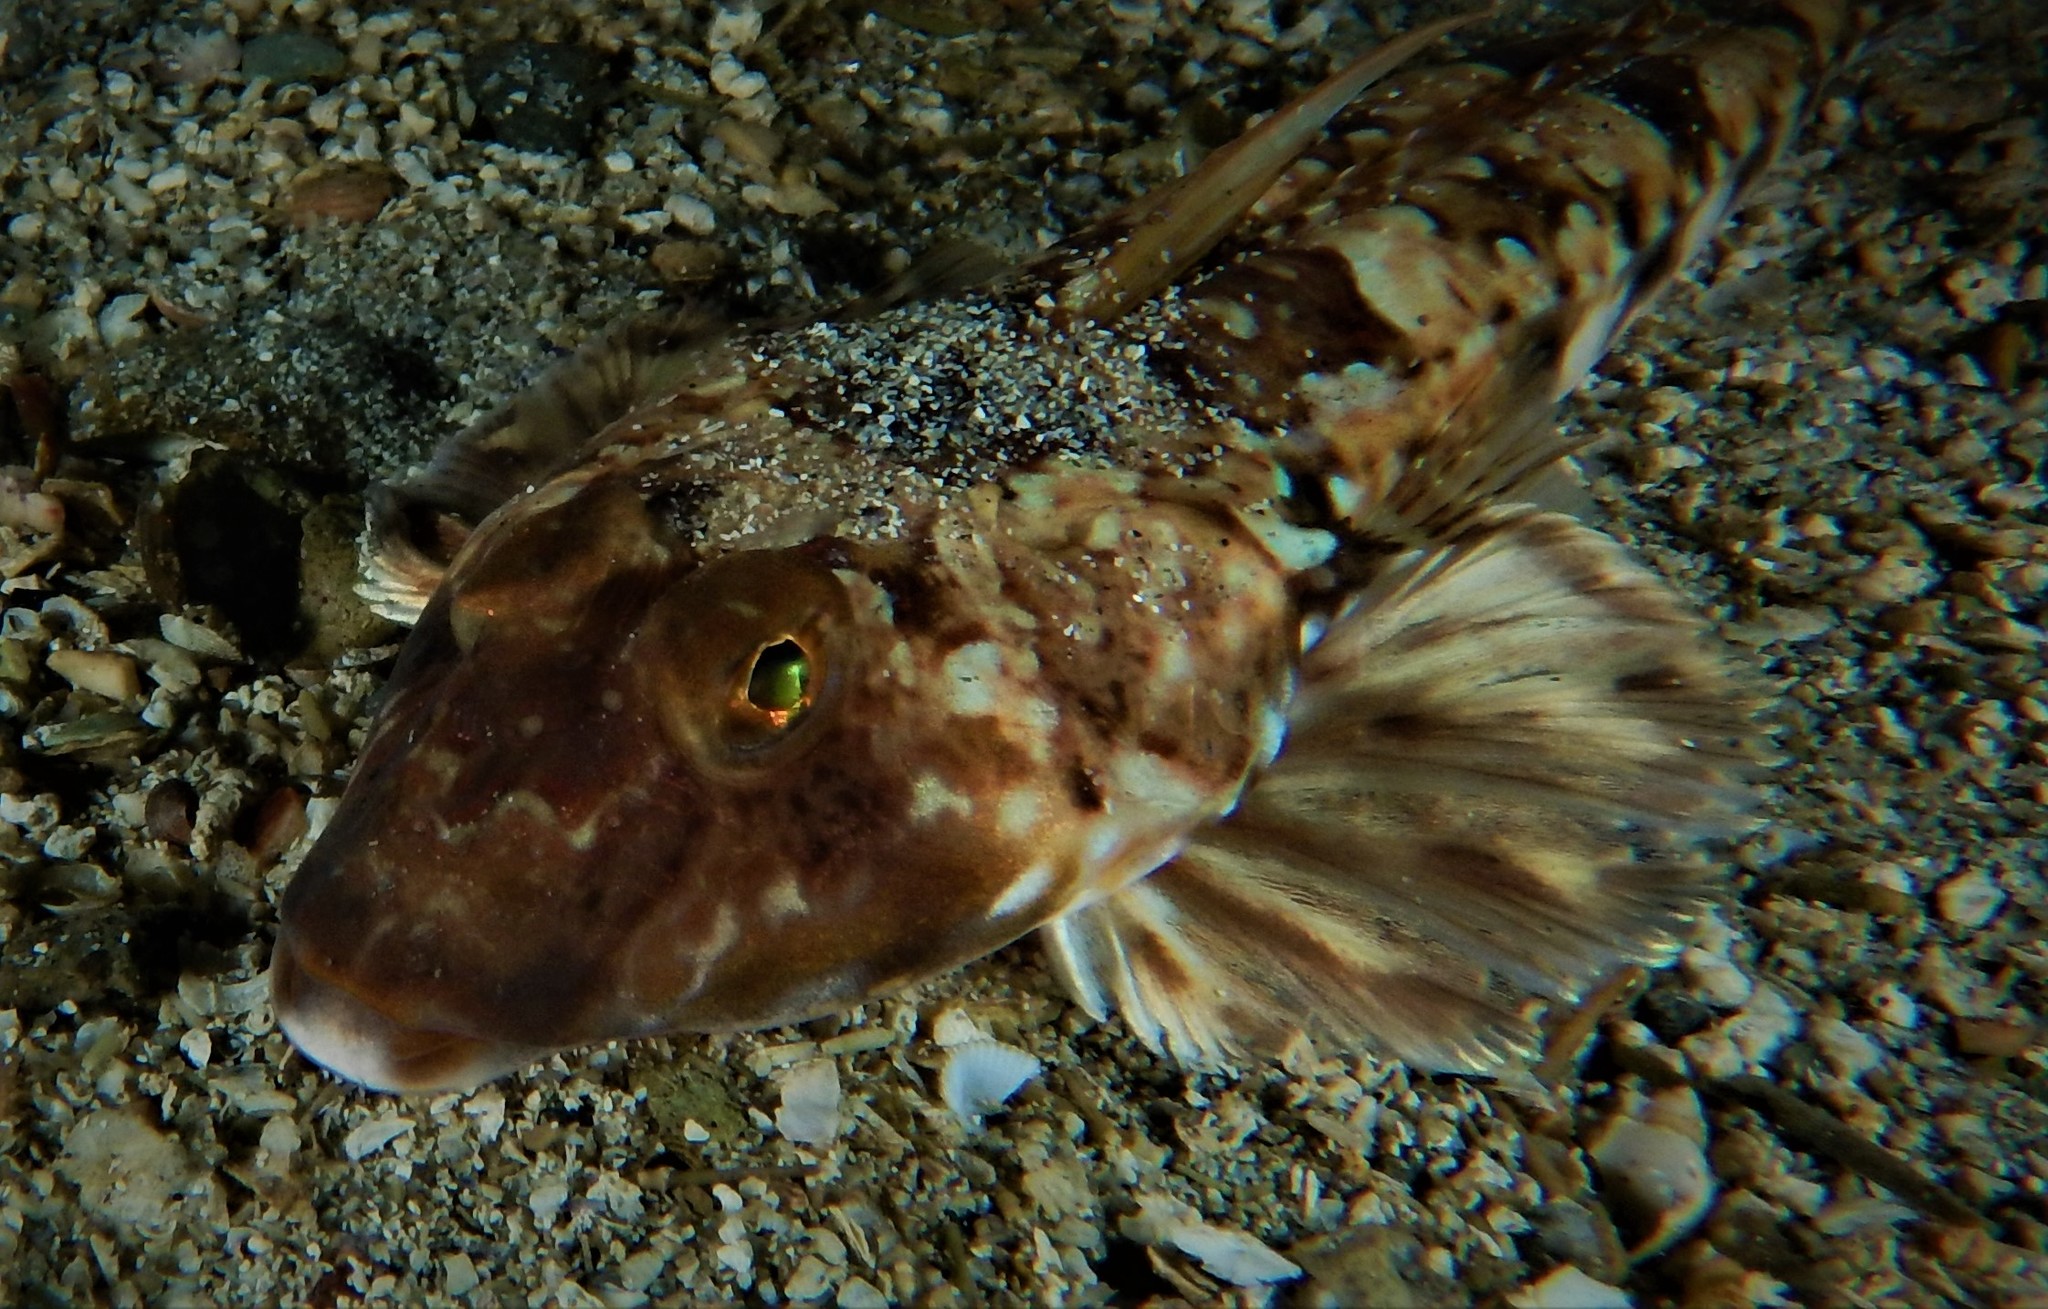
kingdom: Animalia
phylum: Chordata
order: Perciformes
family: Callionymidae
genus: Callionymus
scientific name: Callionymus lyra
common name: Dragonet
